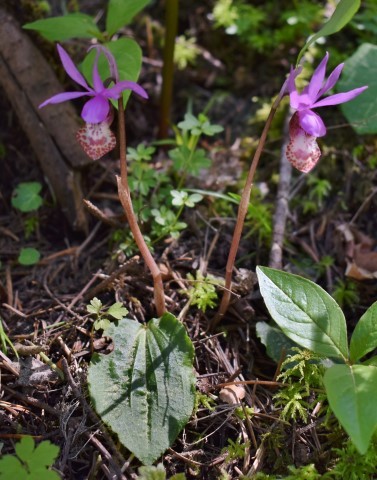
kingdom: Plantae
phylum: Tracheophyta
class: Liliopsida
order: Asparagales
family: Orchidaceae
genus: Calypso
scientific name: Calypso bulbosa
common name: Calypso
